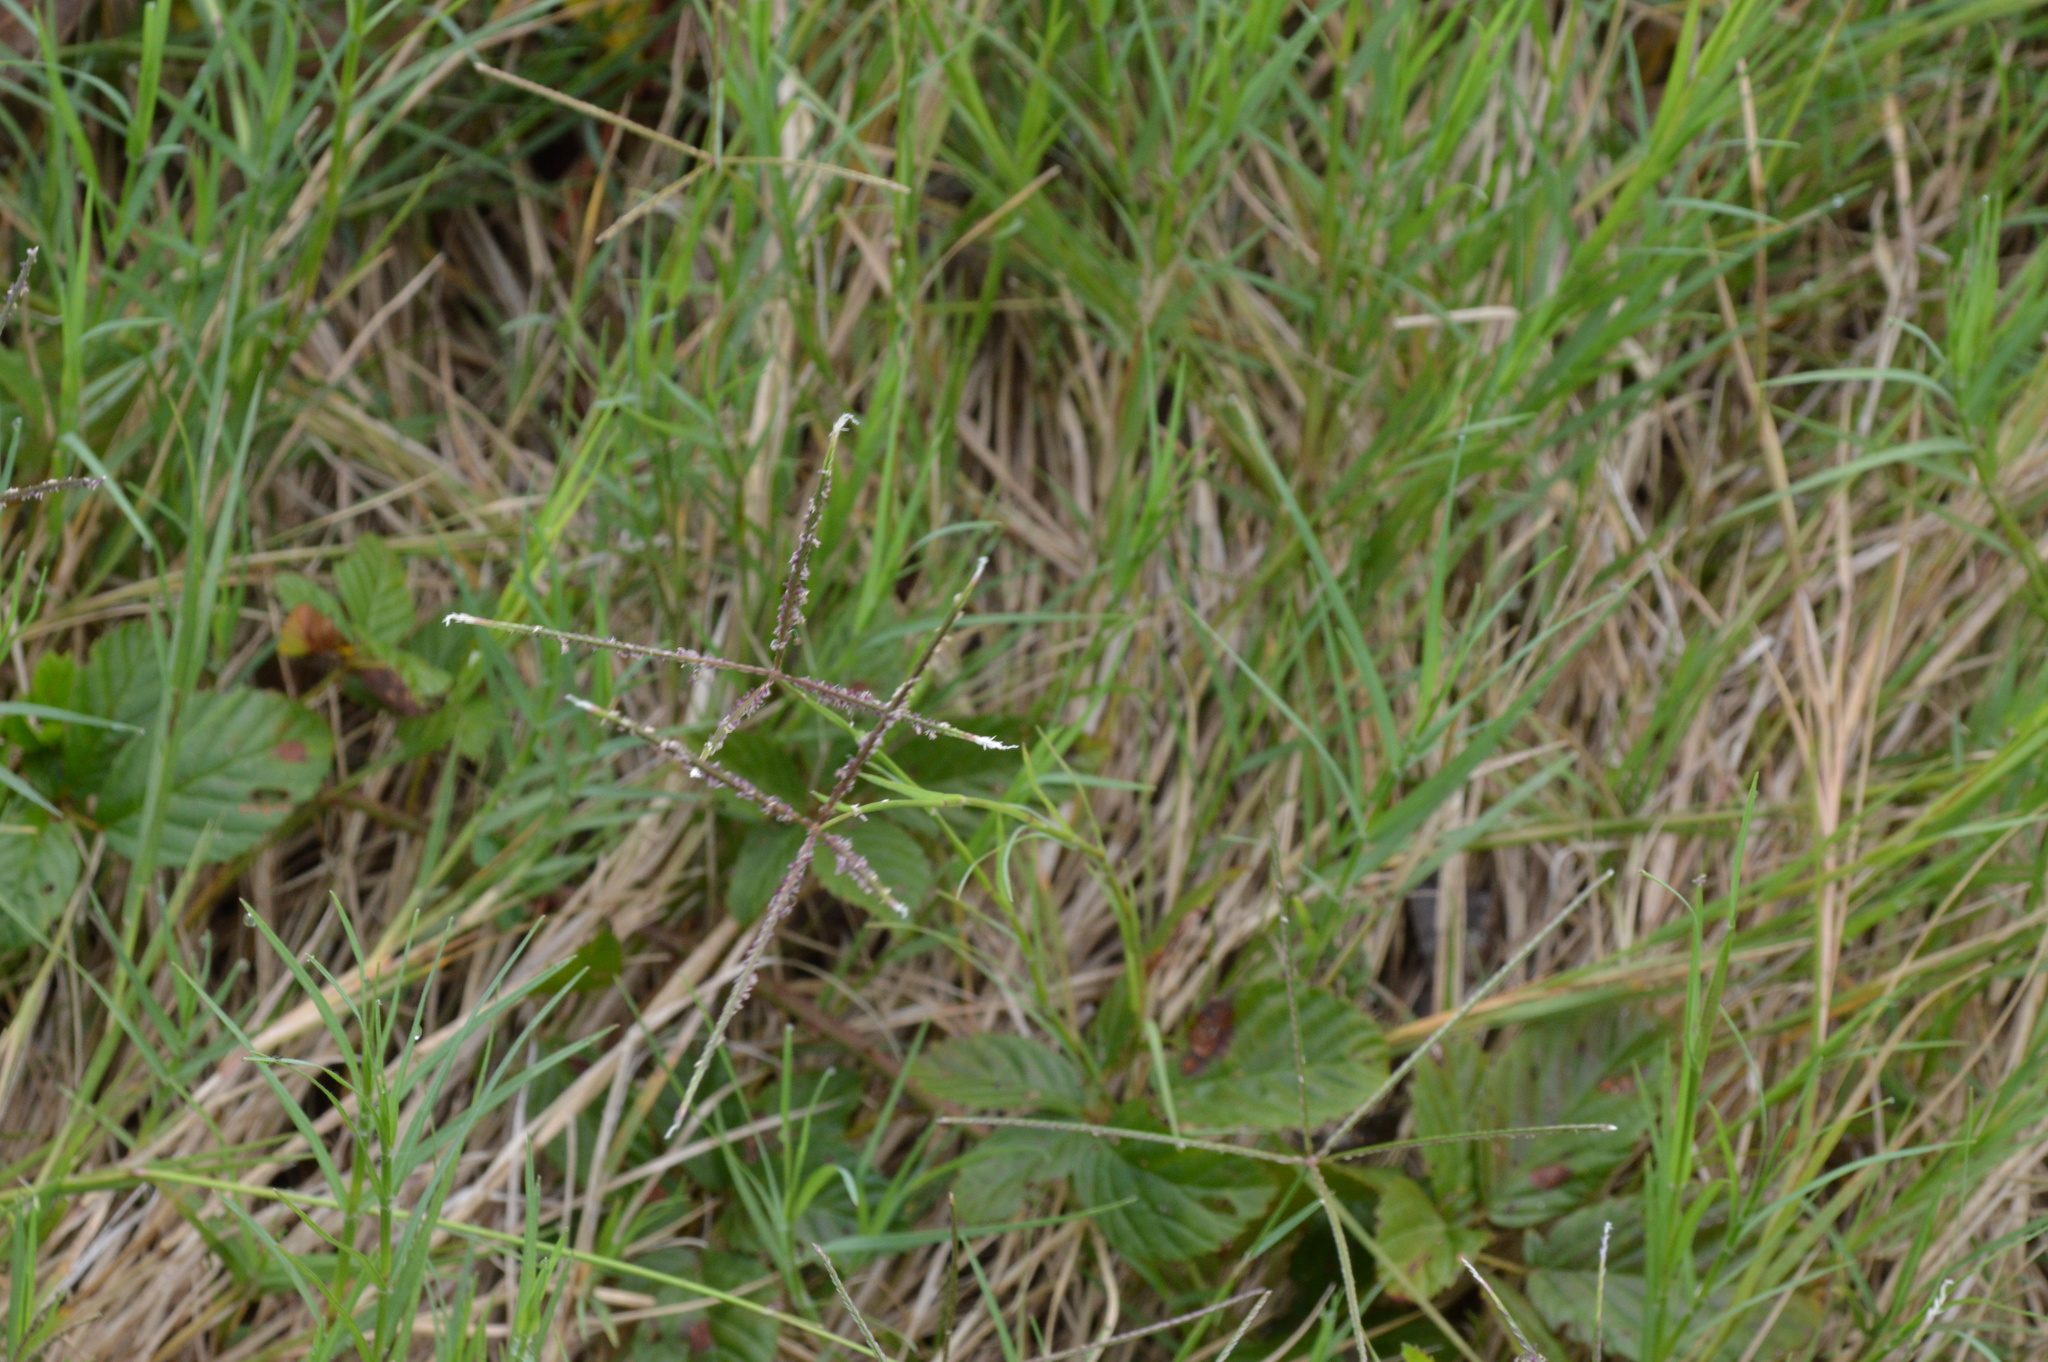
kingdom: Plantae
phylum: Tracheophyta
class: Liliopsida
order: Poales
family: Poaceae
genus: Cynodon
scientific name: Cynodon dactylon
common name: Bermuda grass
